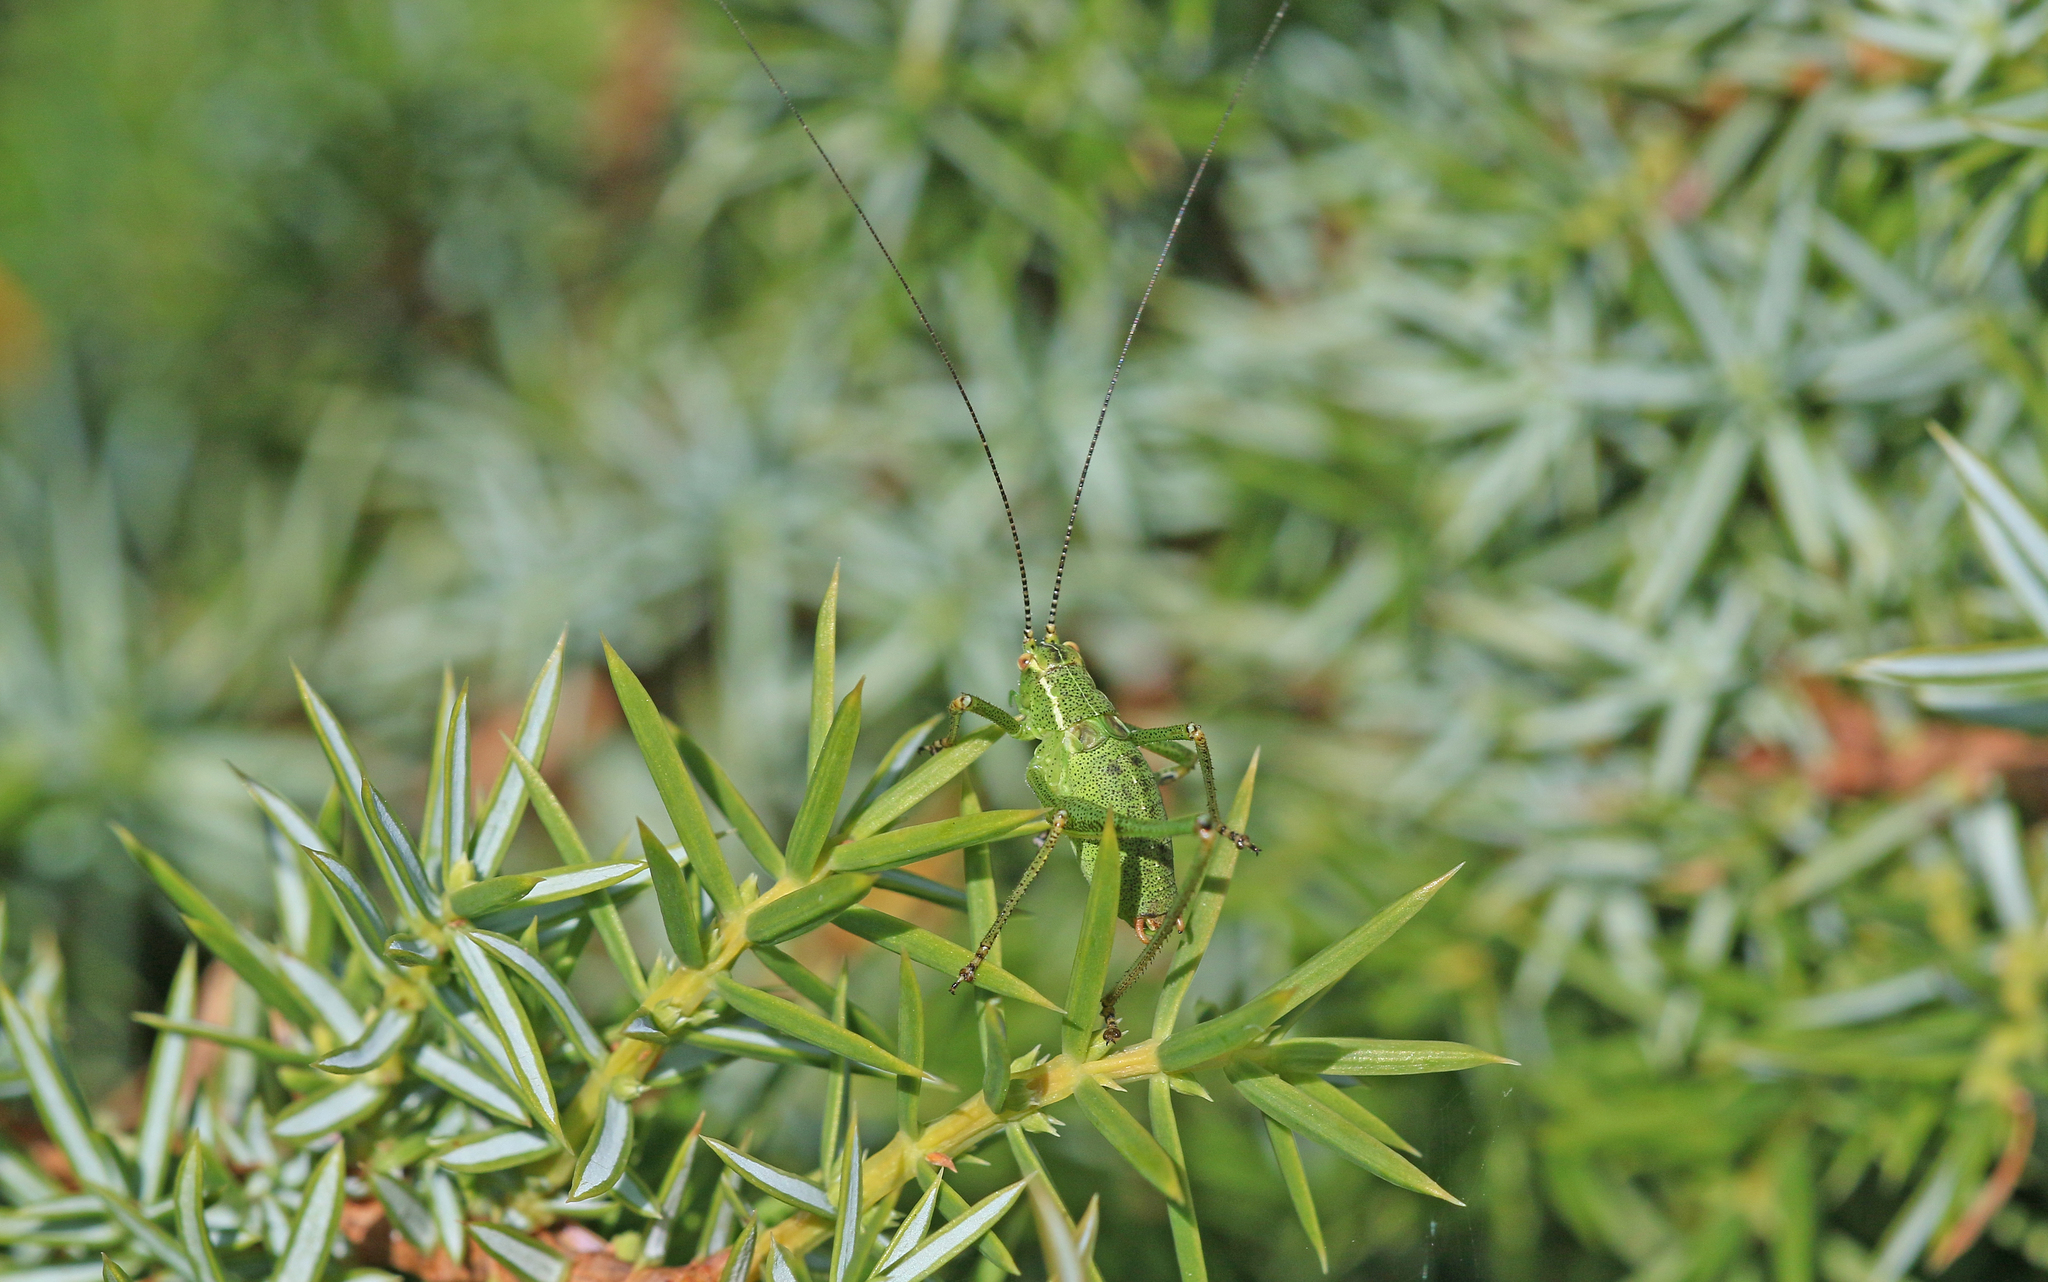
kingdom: Animalia
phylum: Arthropoda
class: Insecta
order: Orthoptera
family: Tettigoniidae
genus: Leptophyes
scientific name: Leptophyes punctatissima
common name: Speckled bush-cricket
